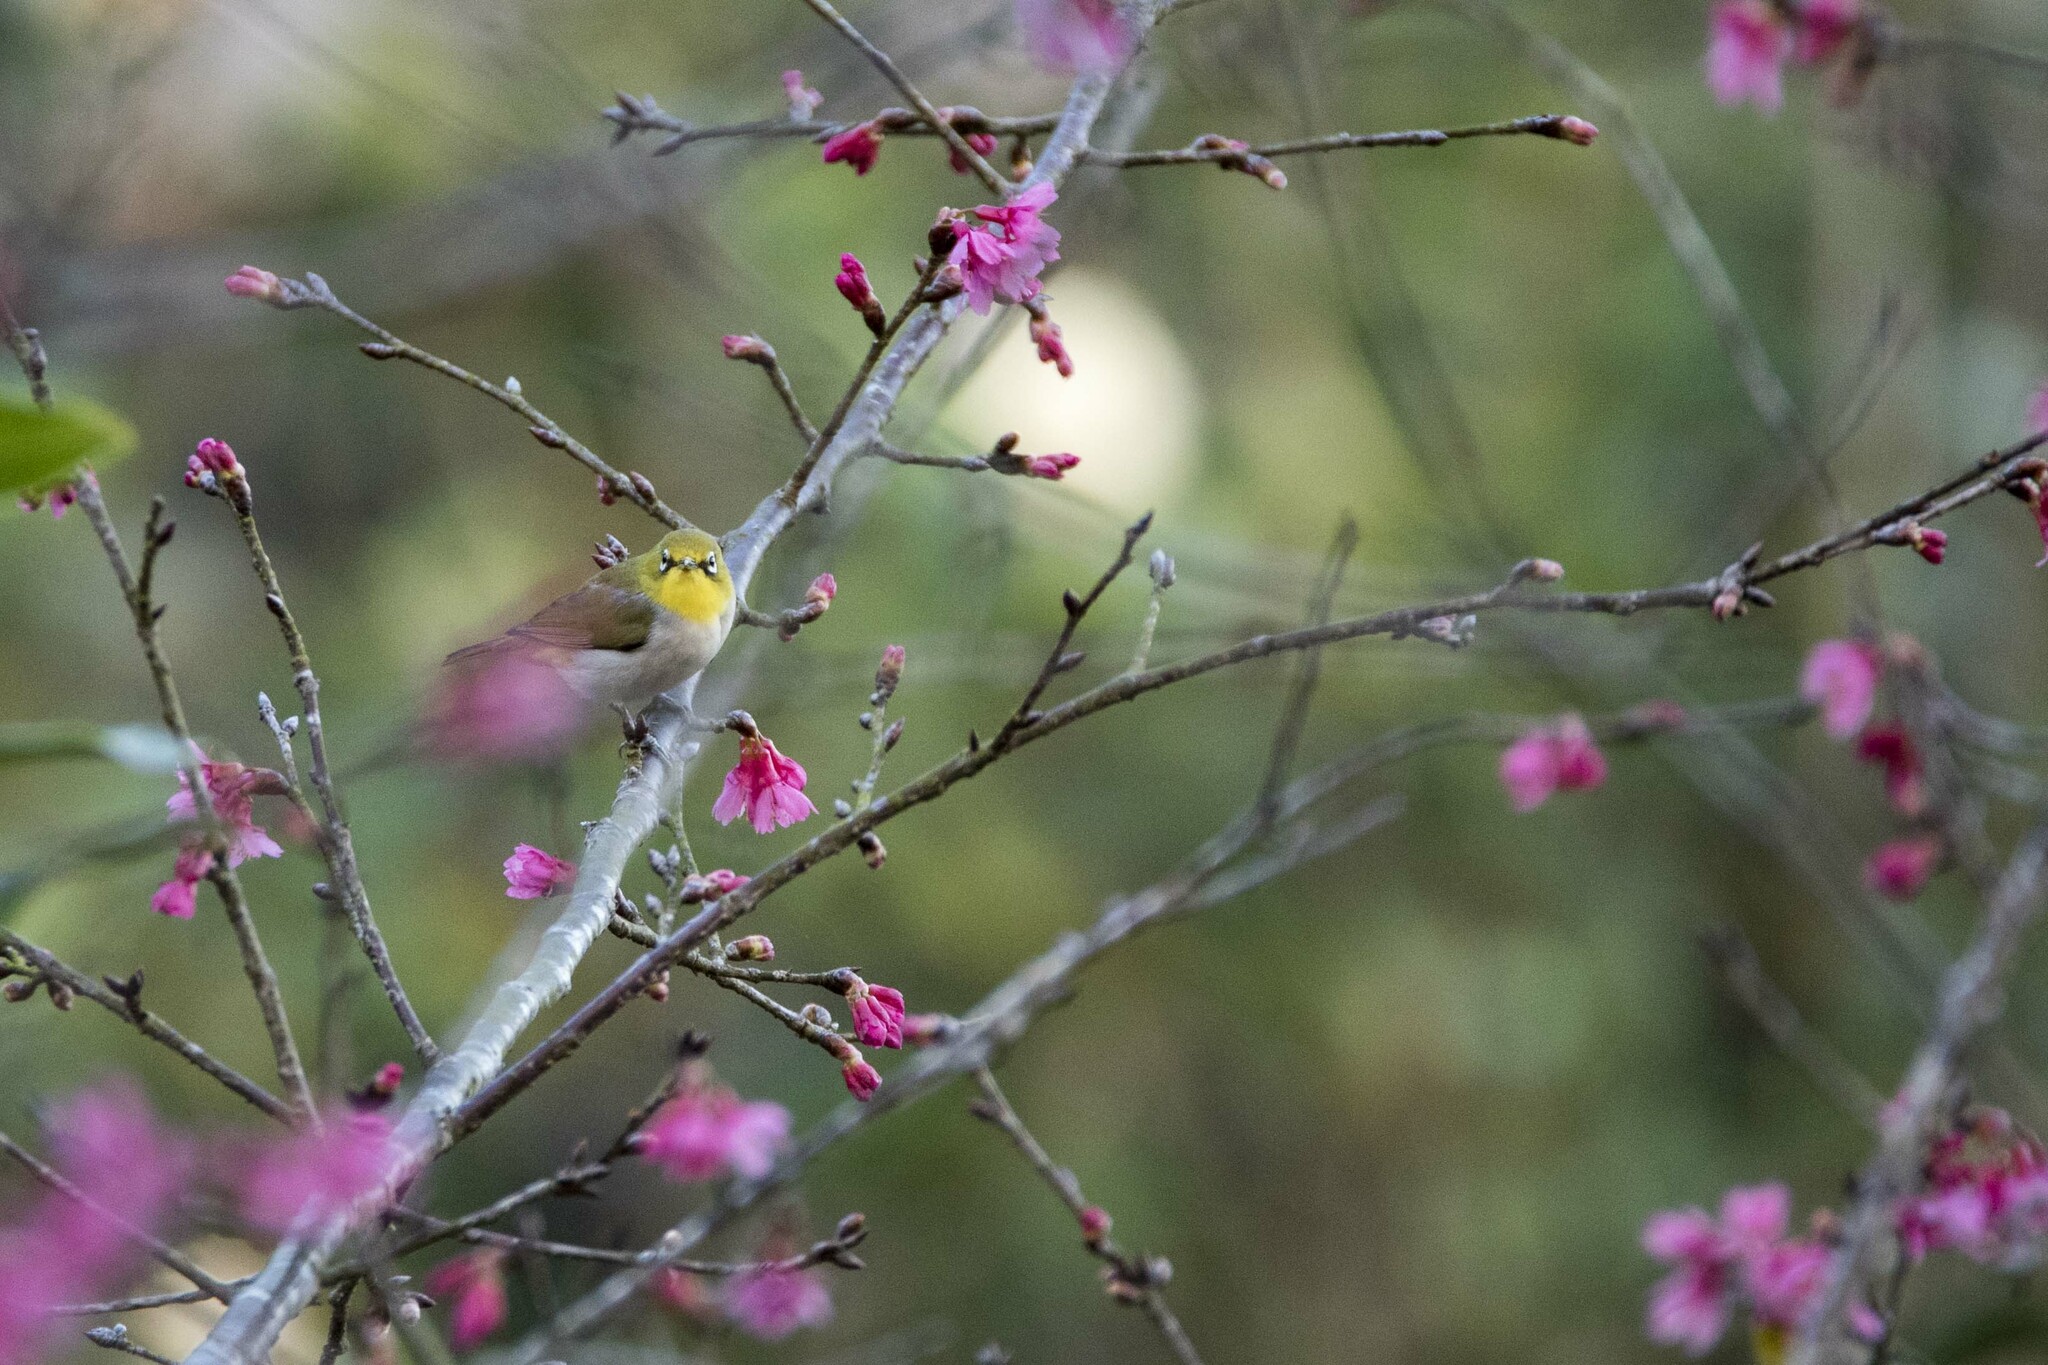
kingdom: Animalia
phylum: Chordata
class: Aves
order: Passeriformes
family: Zosteropidae
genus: Zosterops
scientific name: Zosterops simplex
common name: Swinhoe's white-eye
